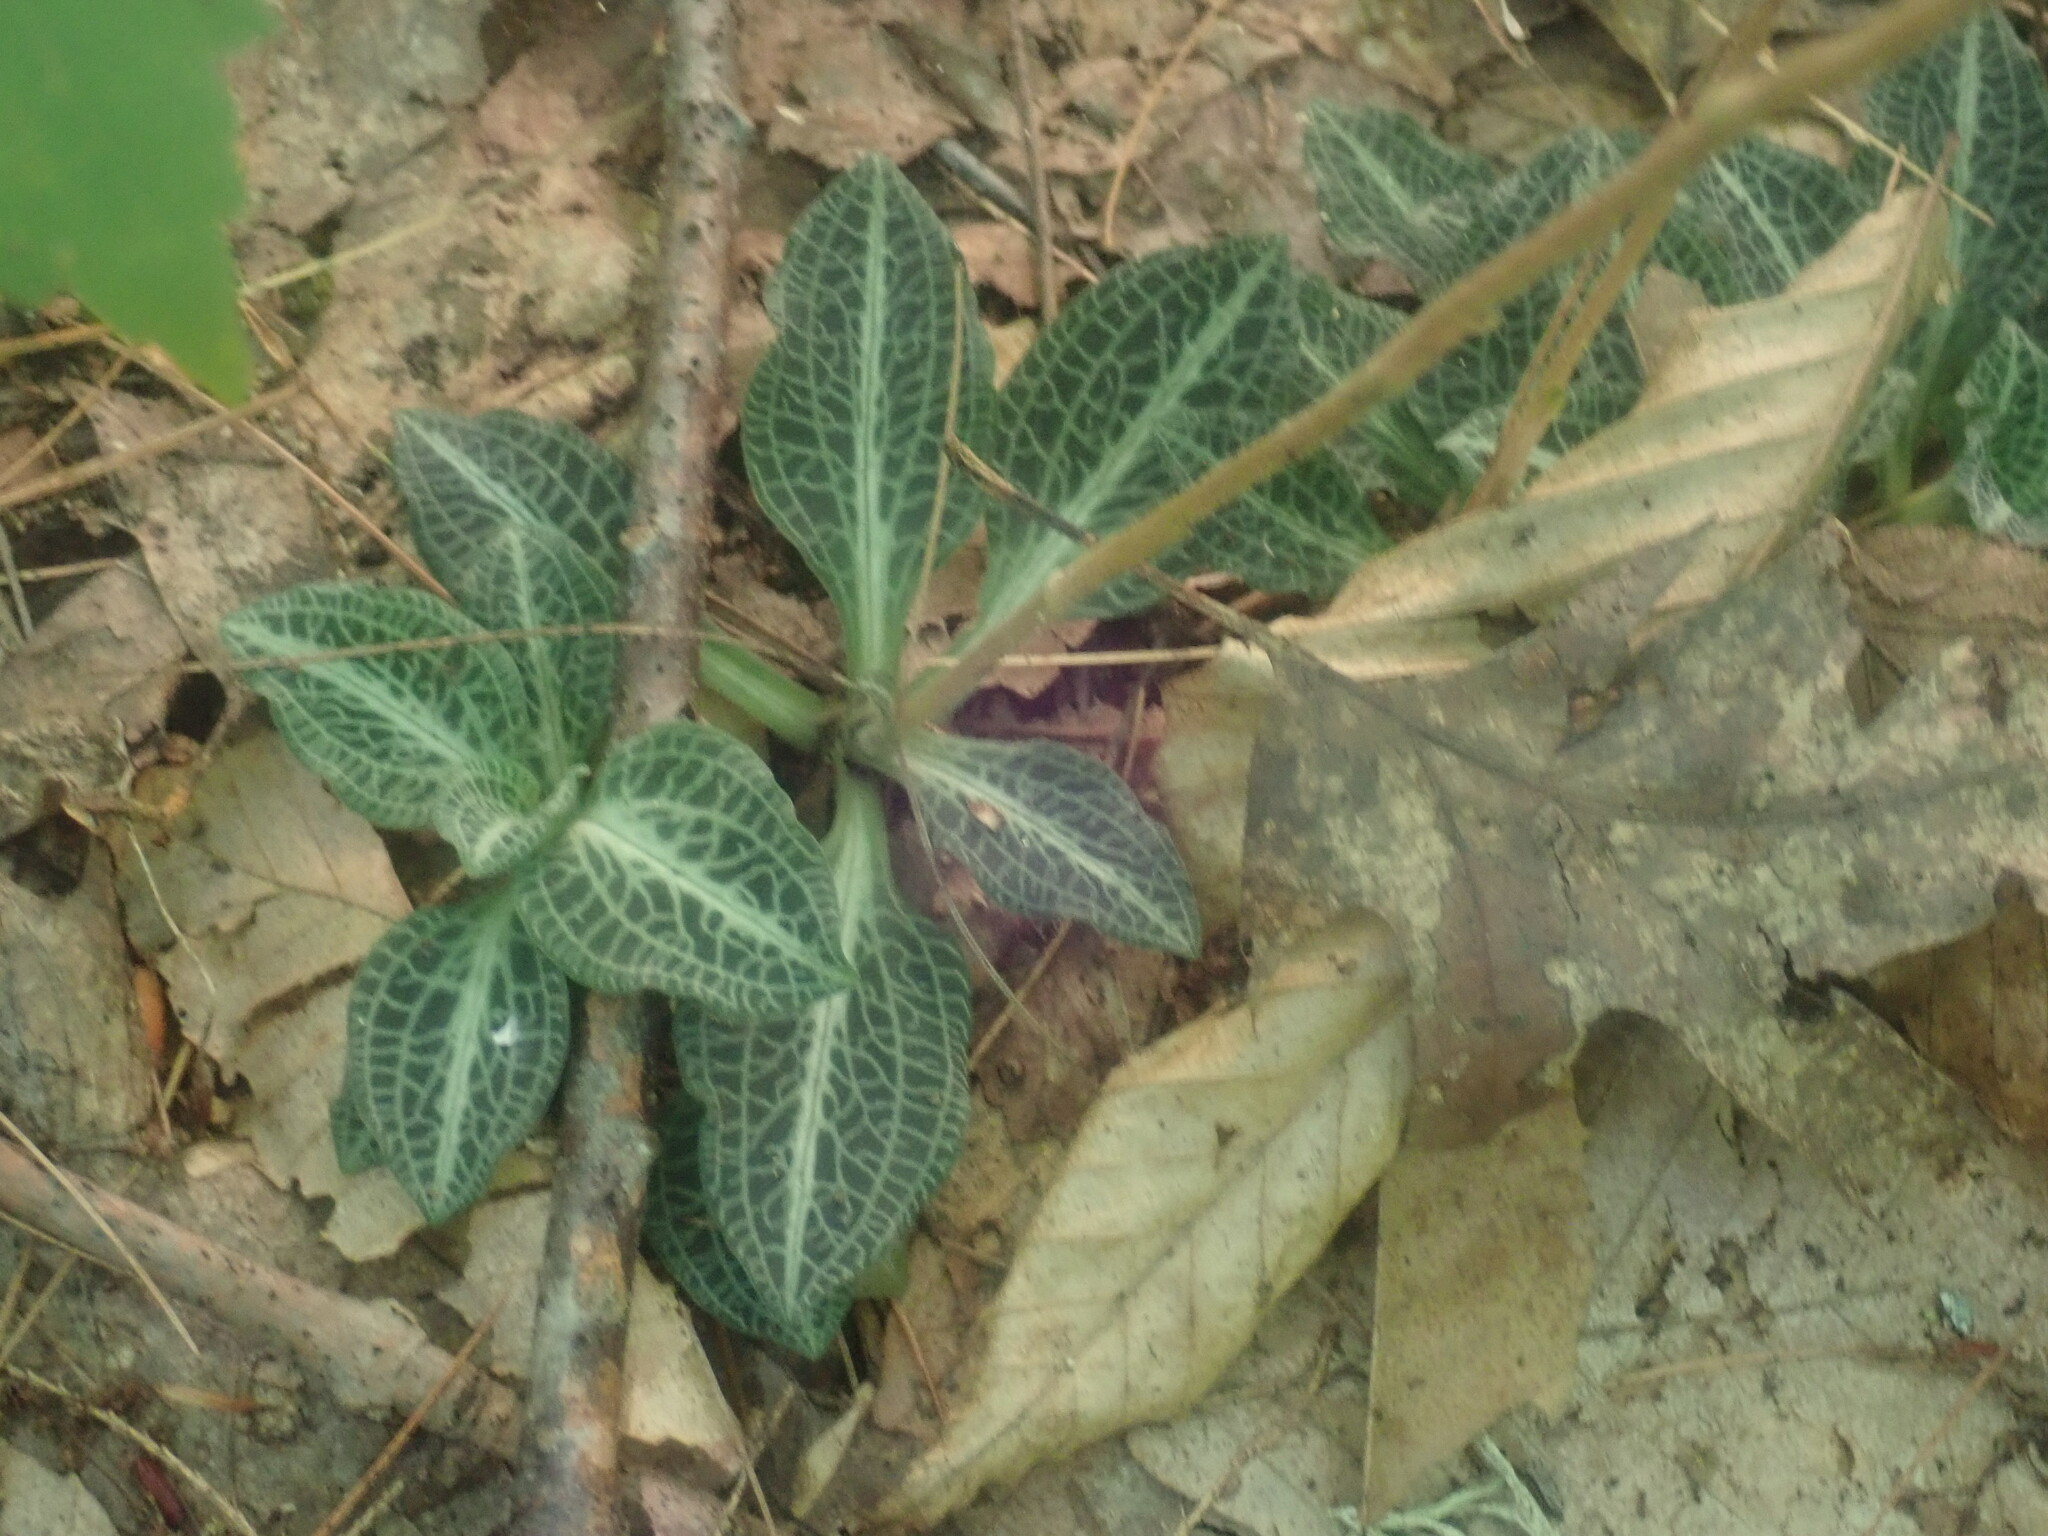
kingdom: Plantae
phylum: Tracheophyta
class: Liliopsida
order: Asparagales
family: Orchidaceae
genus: Goodyera
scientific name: Goodyera pubescens
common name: Downy rattlesnake-plantain
